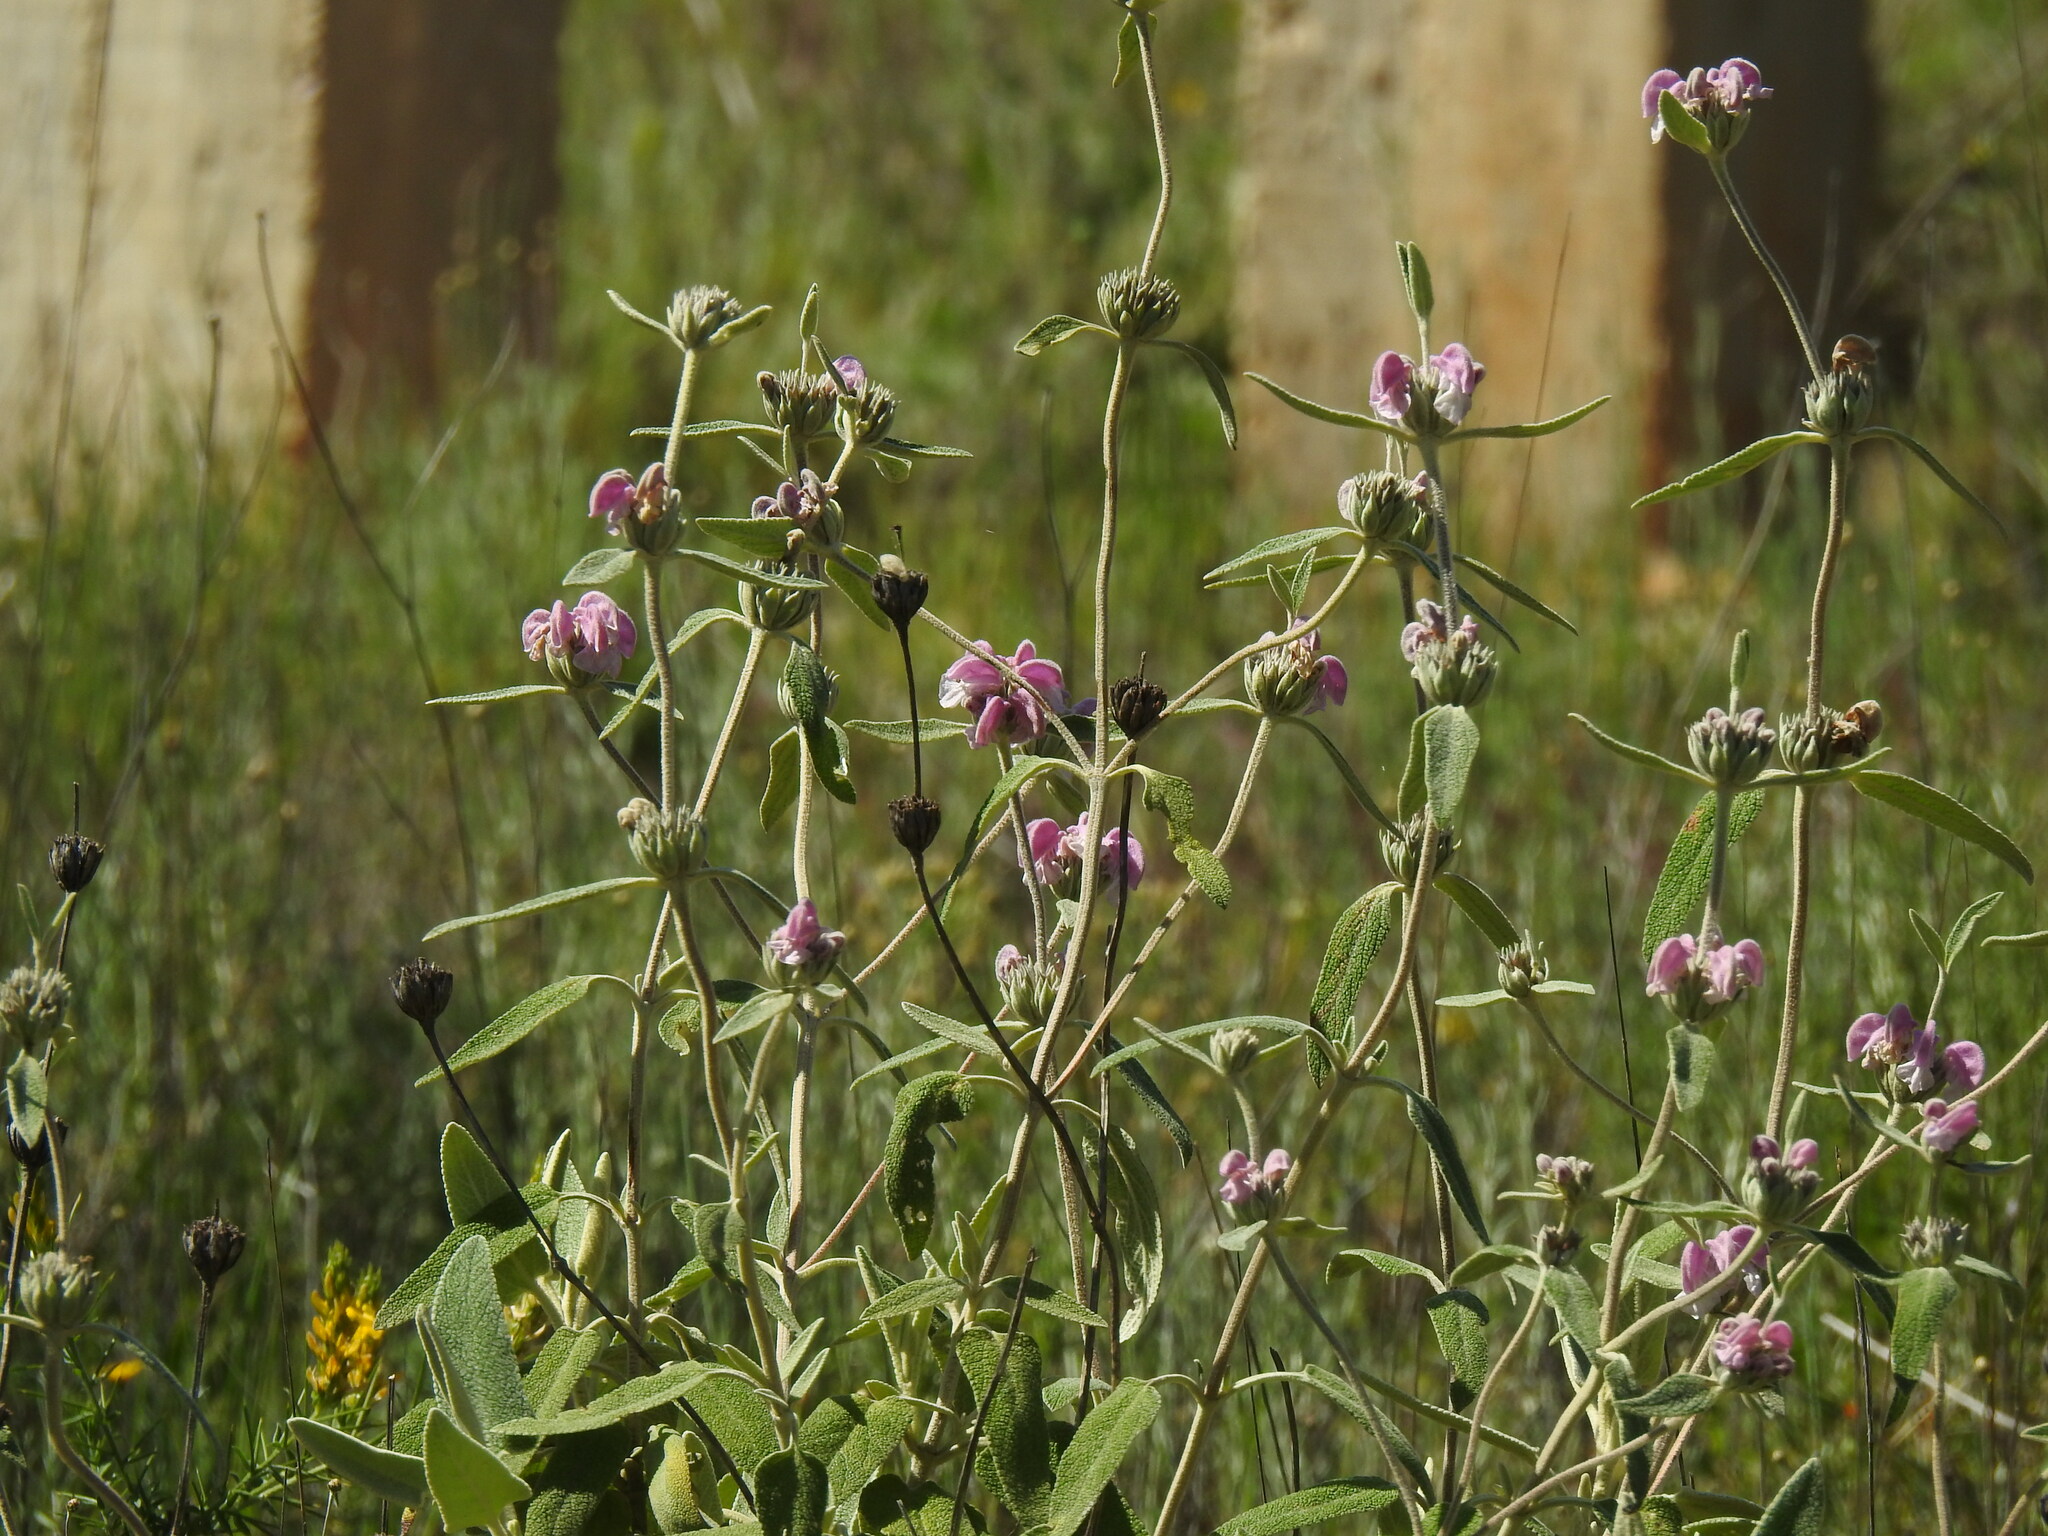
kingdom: Plantae
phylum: Tracheophyta
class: Magnoliopsida
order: Lamiales
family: Lamiaceae
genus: Phlomis
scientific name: Phlomis purpurea
